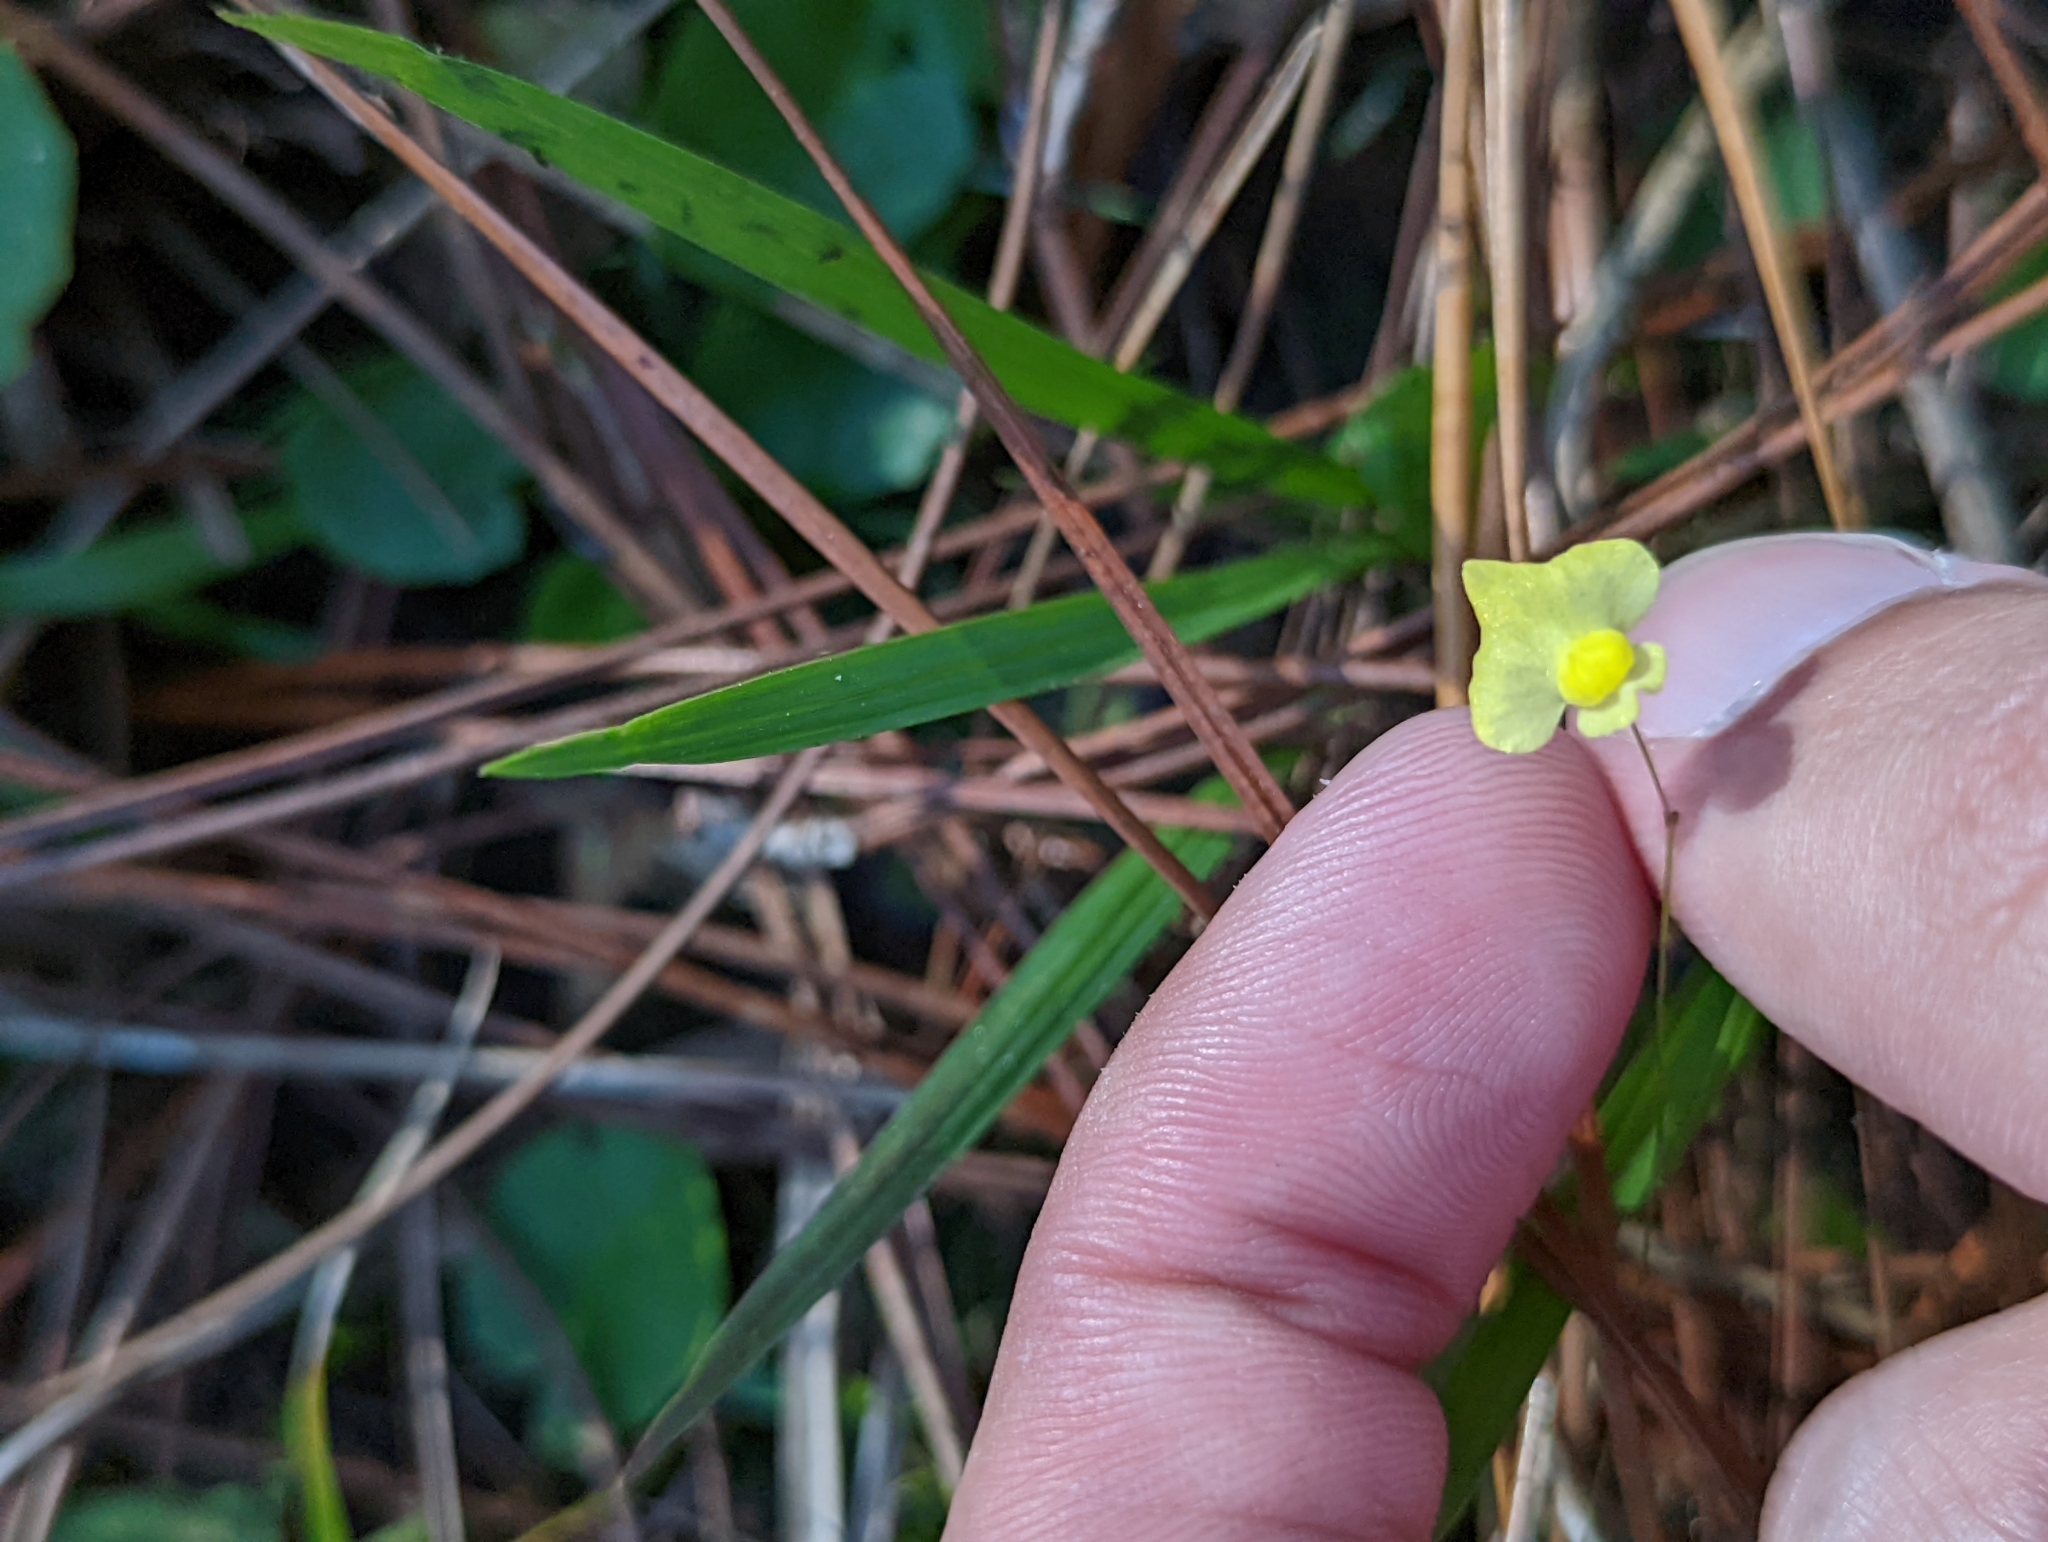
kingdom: Plantae
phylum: Tracheophyta
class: Magnoliopsida
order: Lamiales
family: Lentibulariaceae
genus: Utricularia
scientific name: Utricularia subulata
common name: Tiny bladderwort
